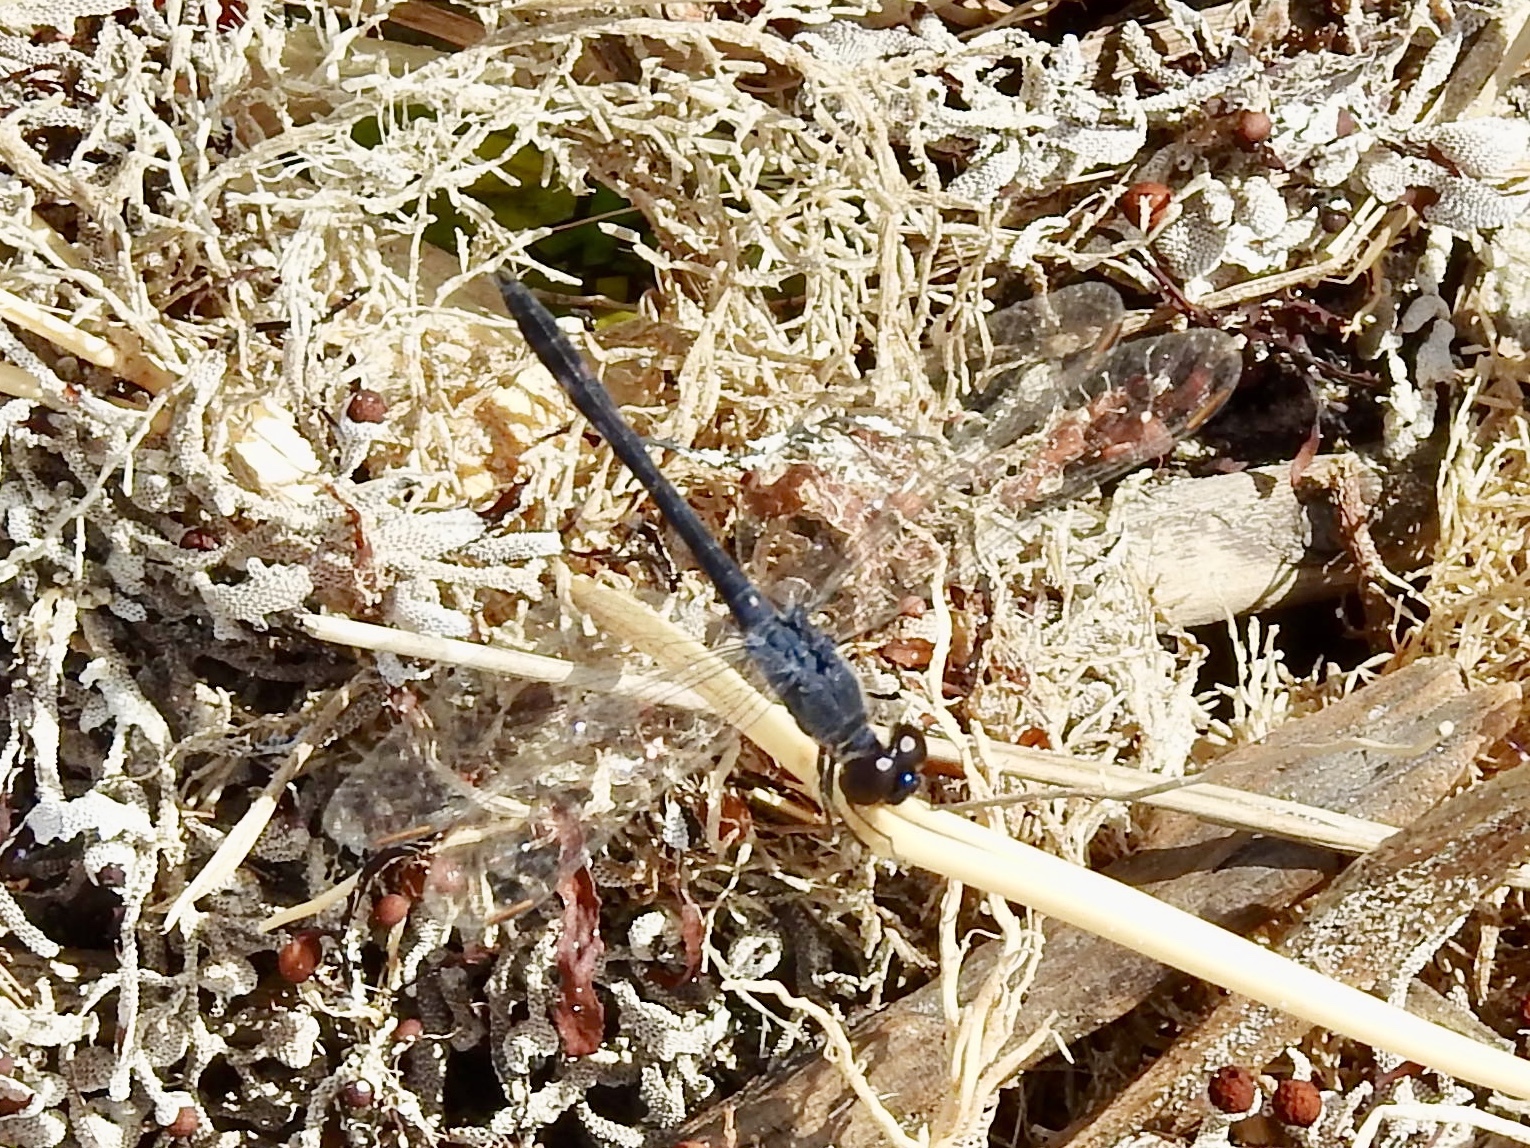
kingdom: Animalia
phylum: Arthropoda
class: Insecta
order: Odonata
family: Libellulidae
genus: Erythrodiplax
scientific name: Erythrodiplax berenice
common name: Seaside dragonlet
